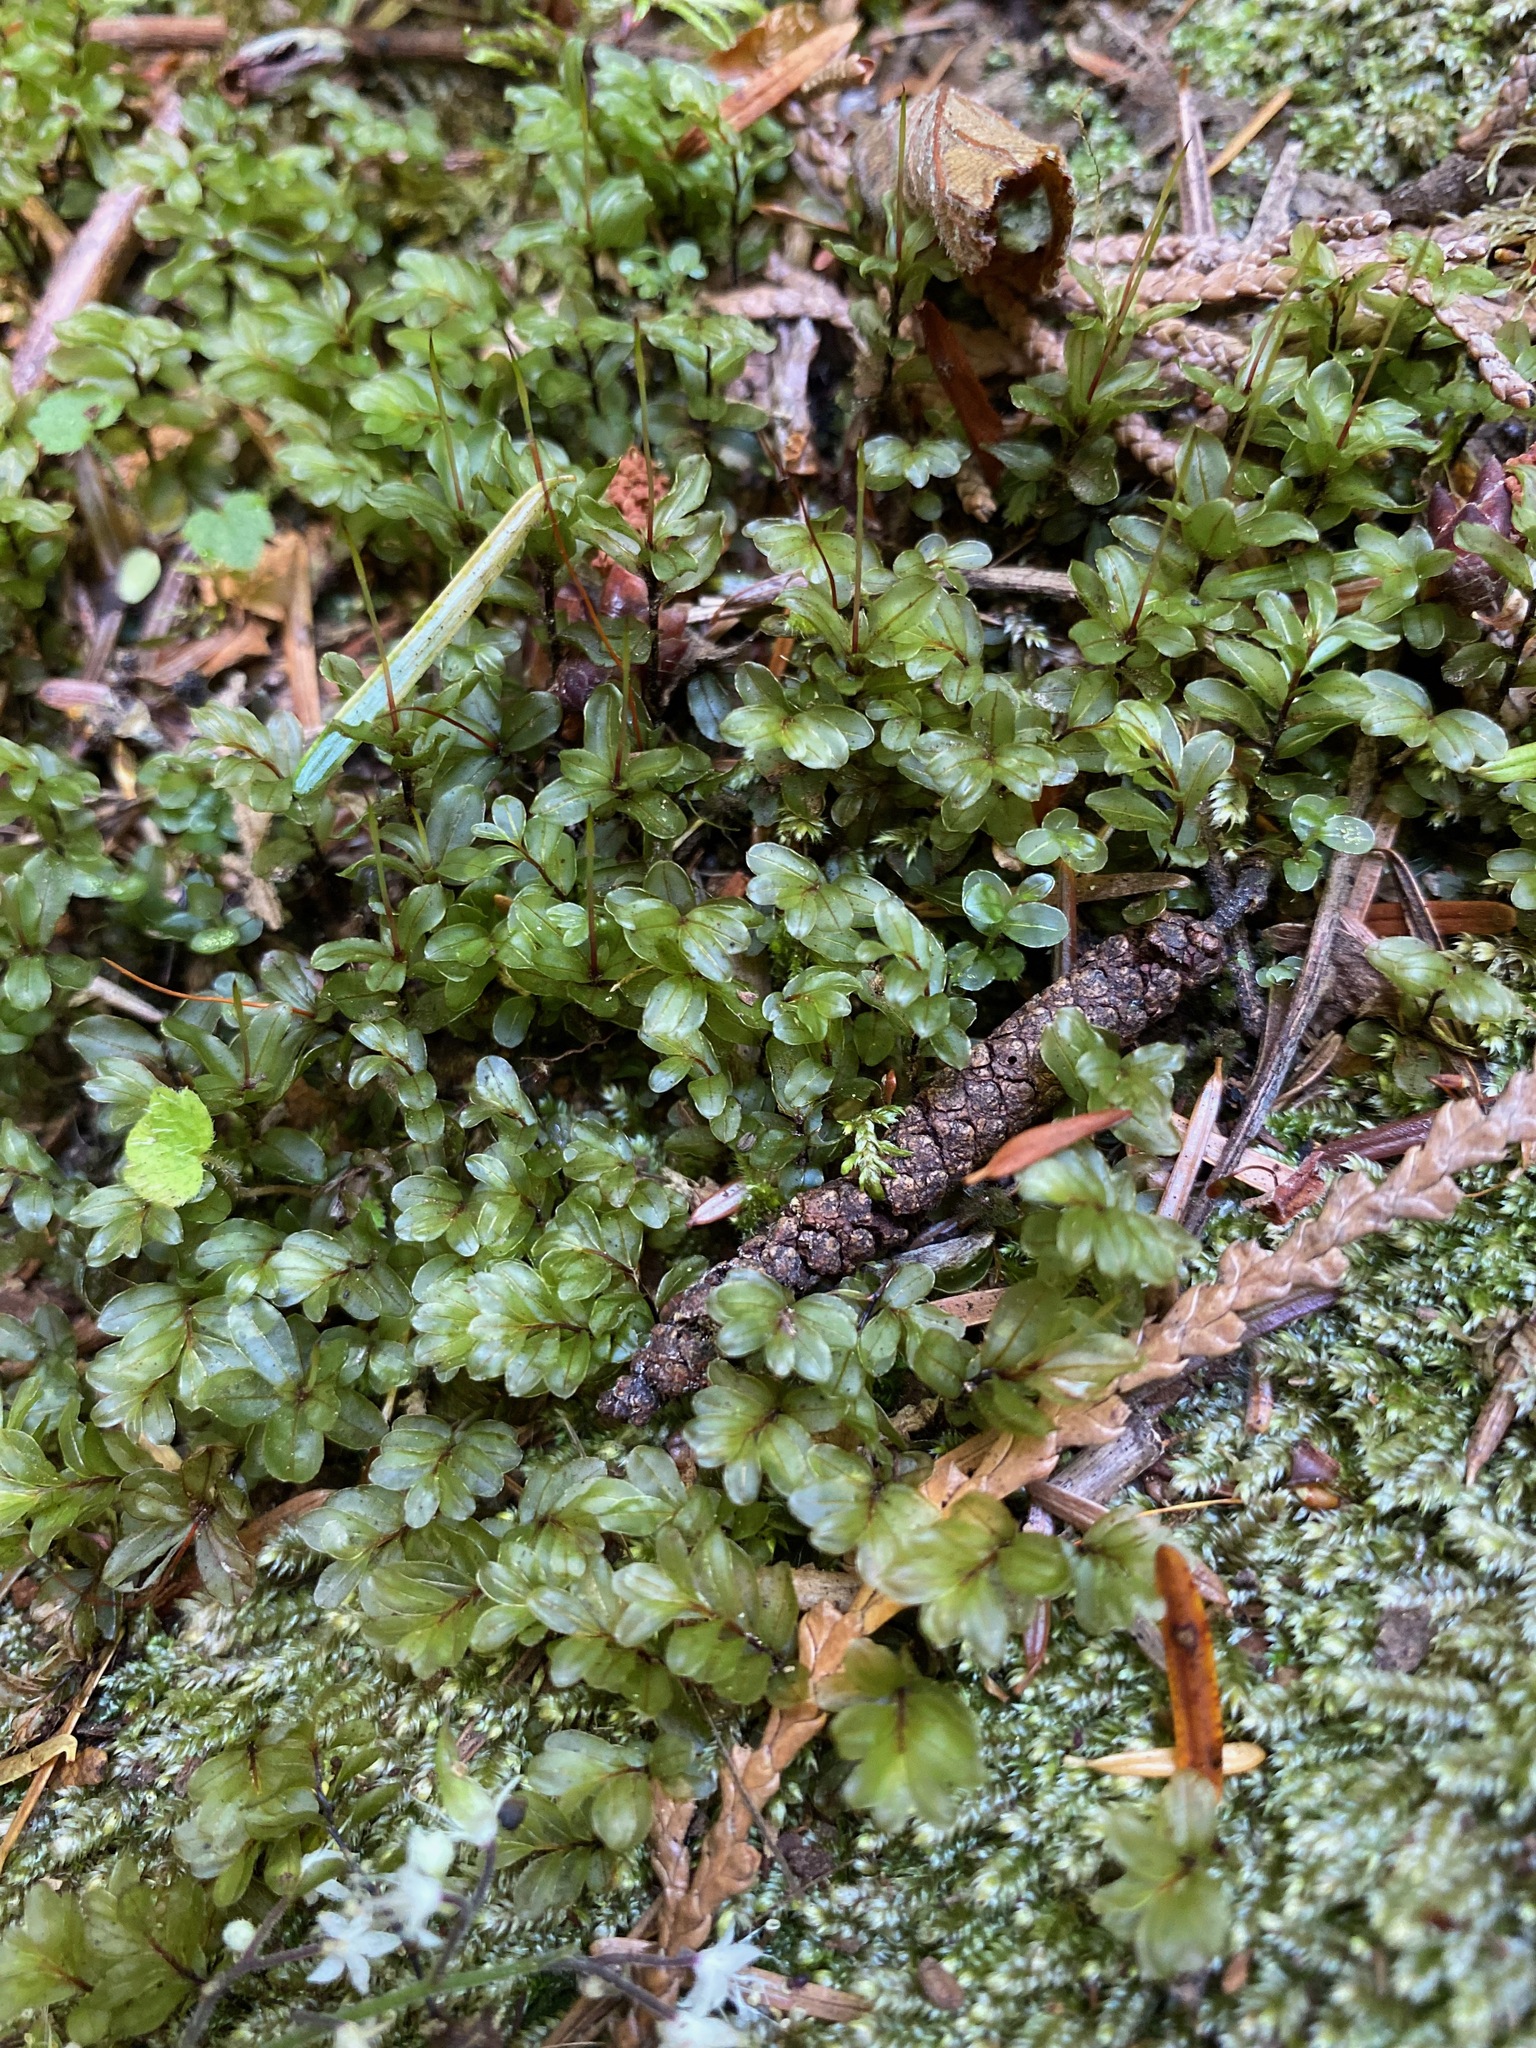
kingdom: Plantae
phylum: Bryophyta
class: Bryopsida
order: Bryales
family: Mniaceae
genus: Rhizomnium
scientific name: Rhizomnium glabrescens
